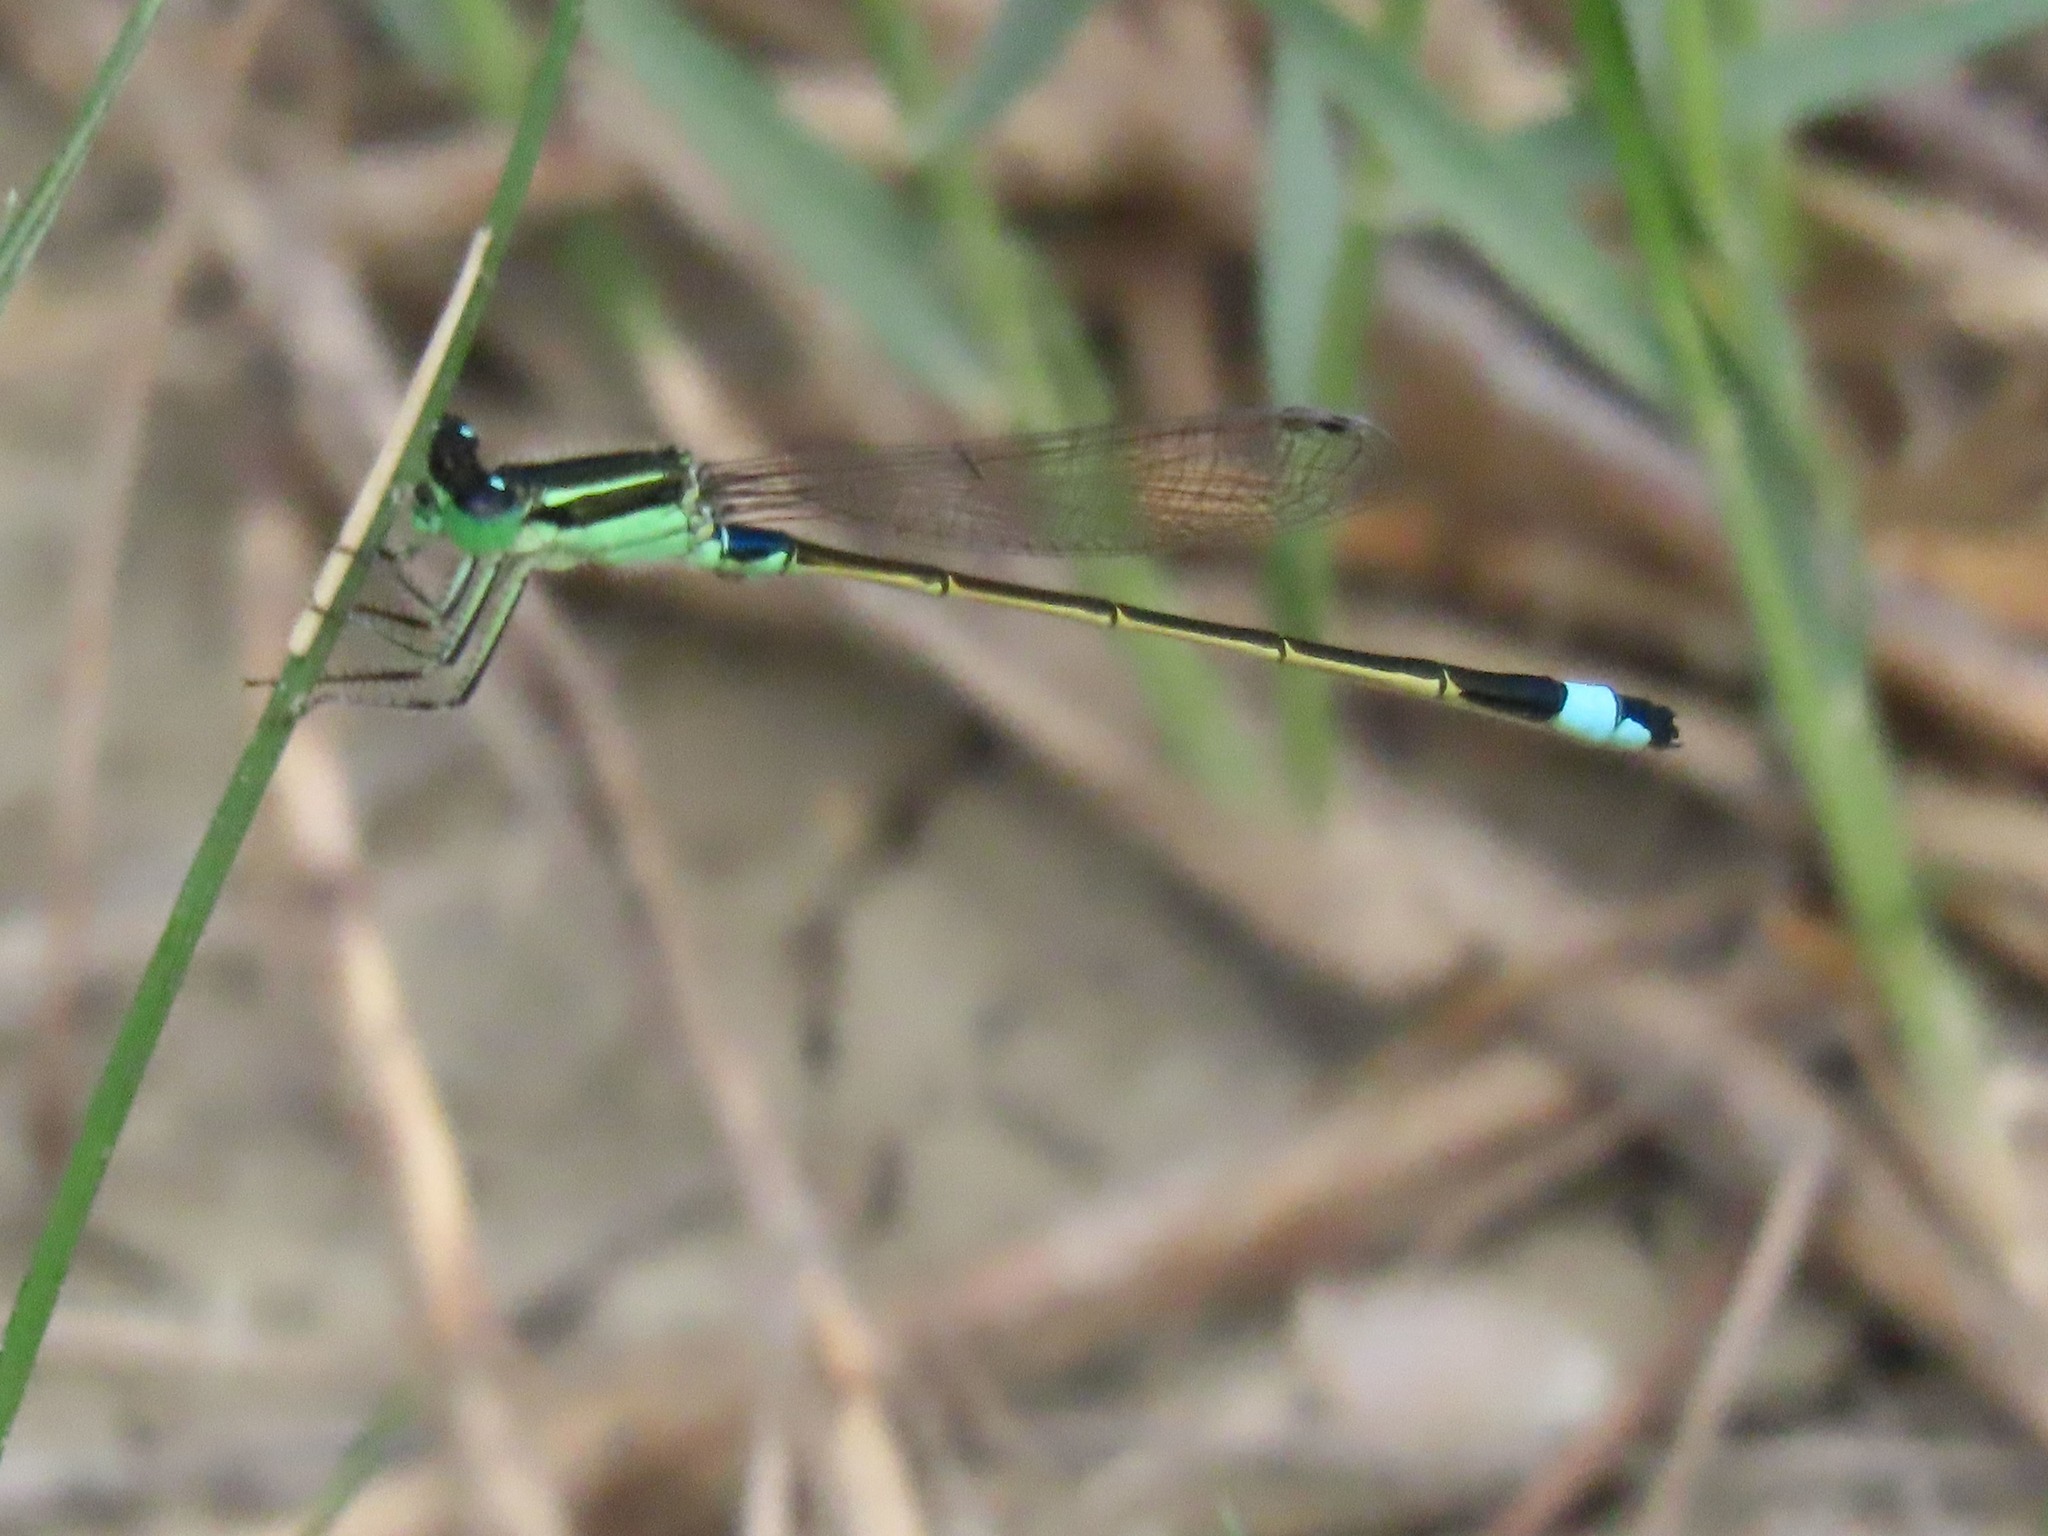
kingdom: Animalia
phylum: Arthropoda
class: Insecta
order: Odonata
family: Coenagrionidae
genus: Ischnura
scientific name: Ischnura senegalensis
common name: Tropical bluetail
